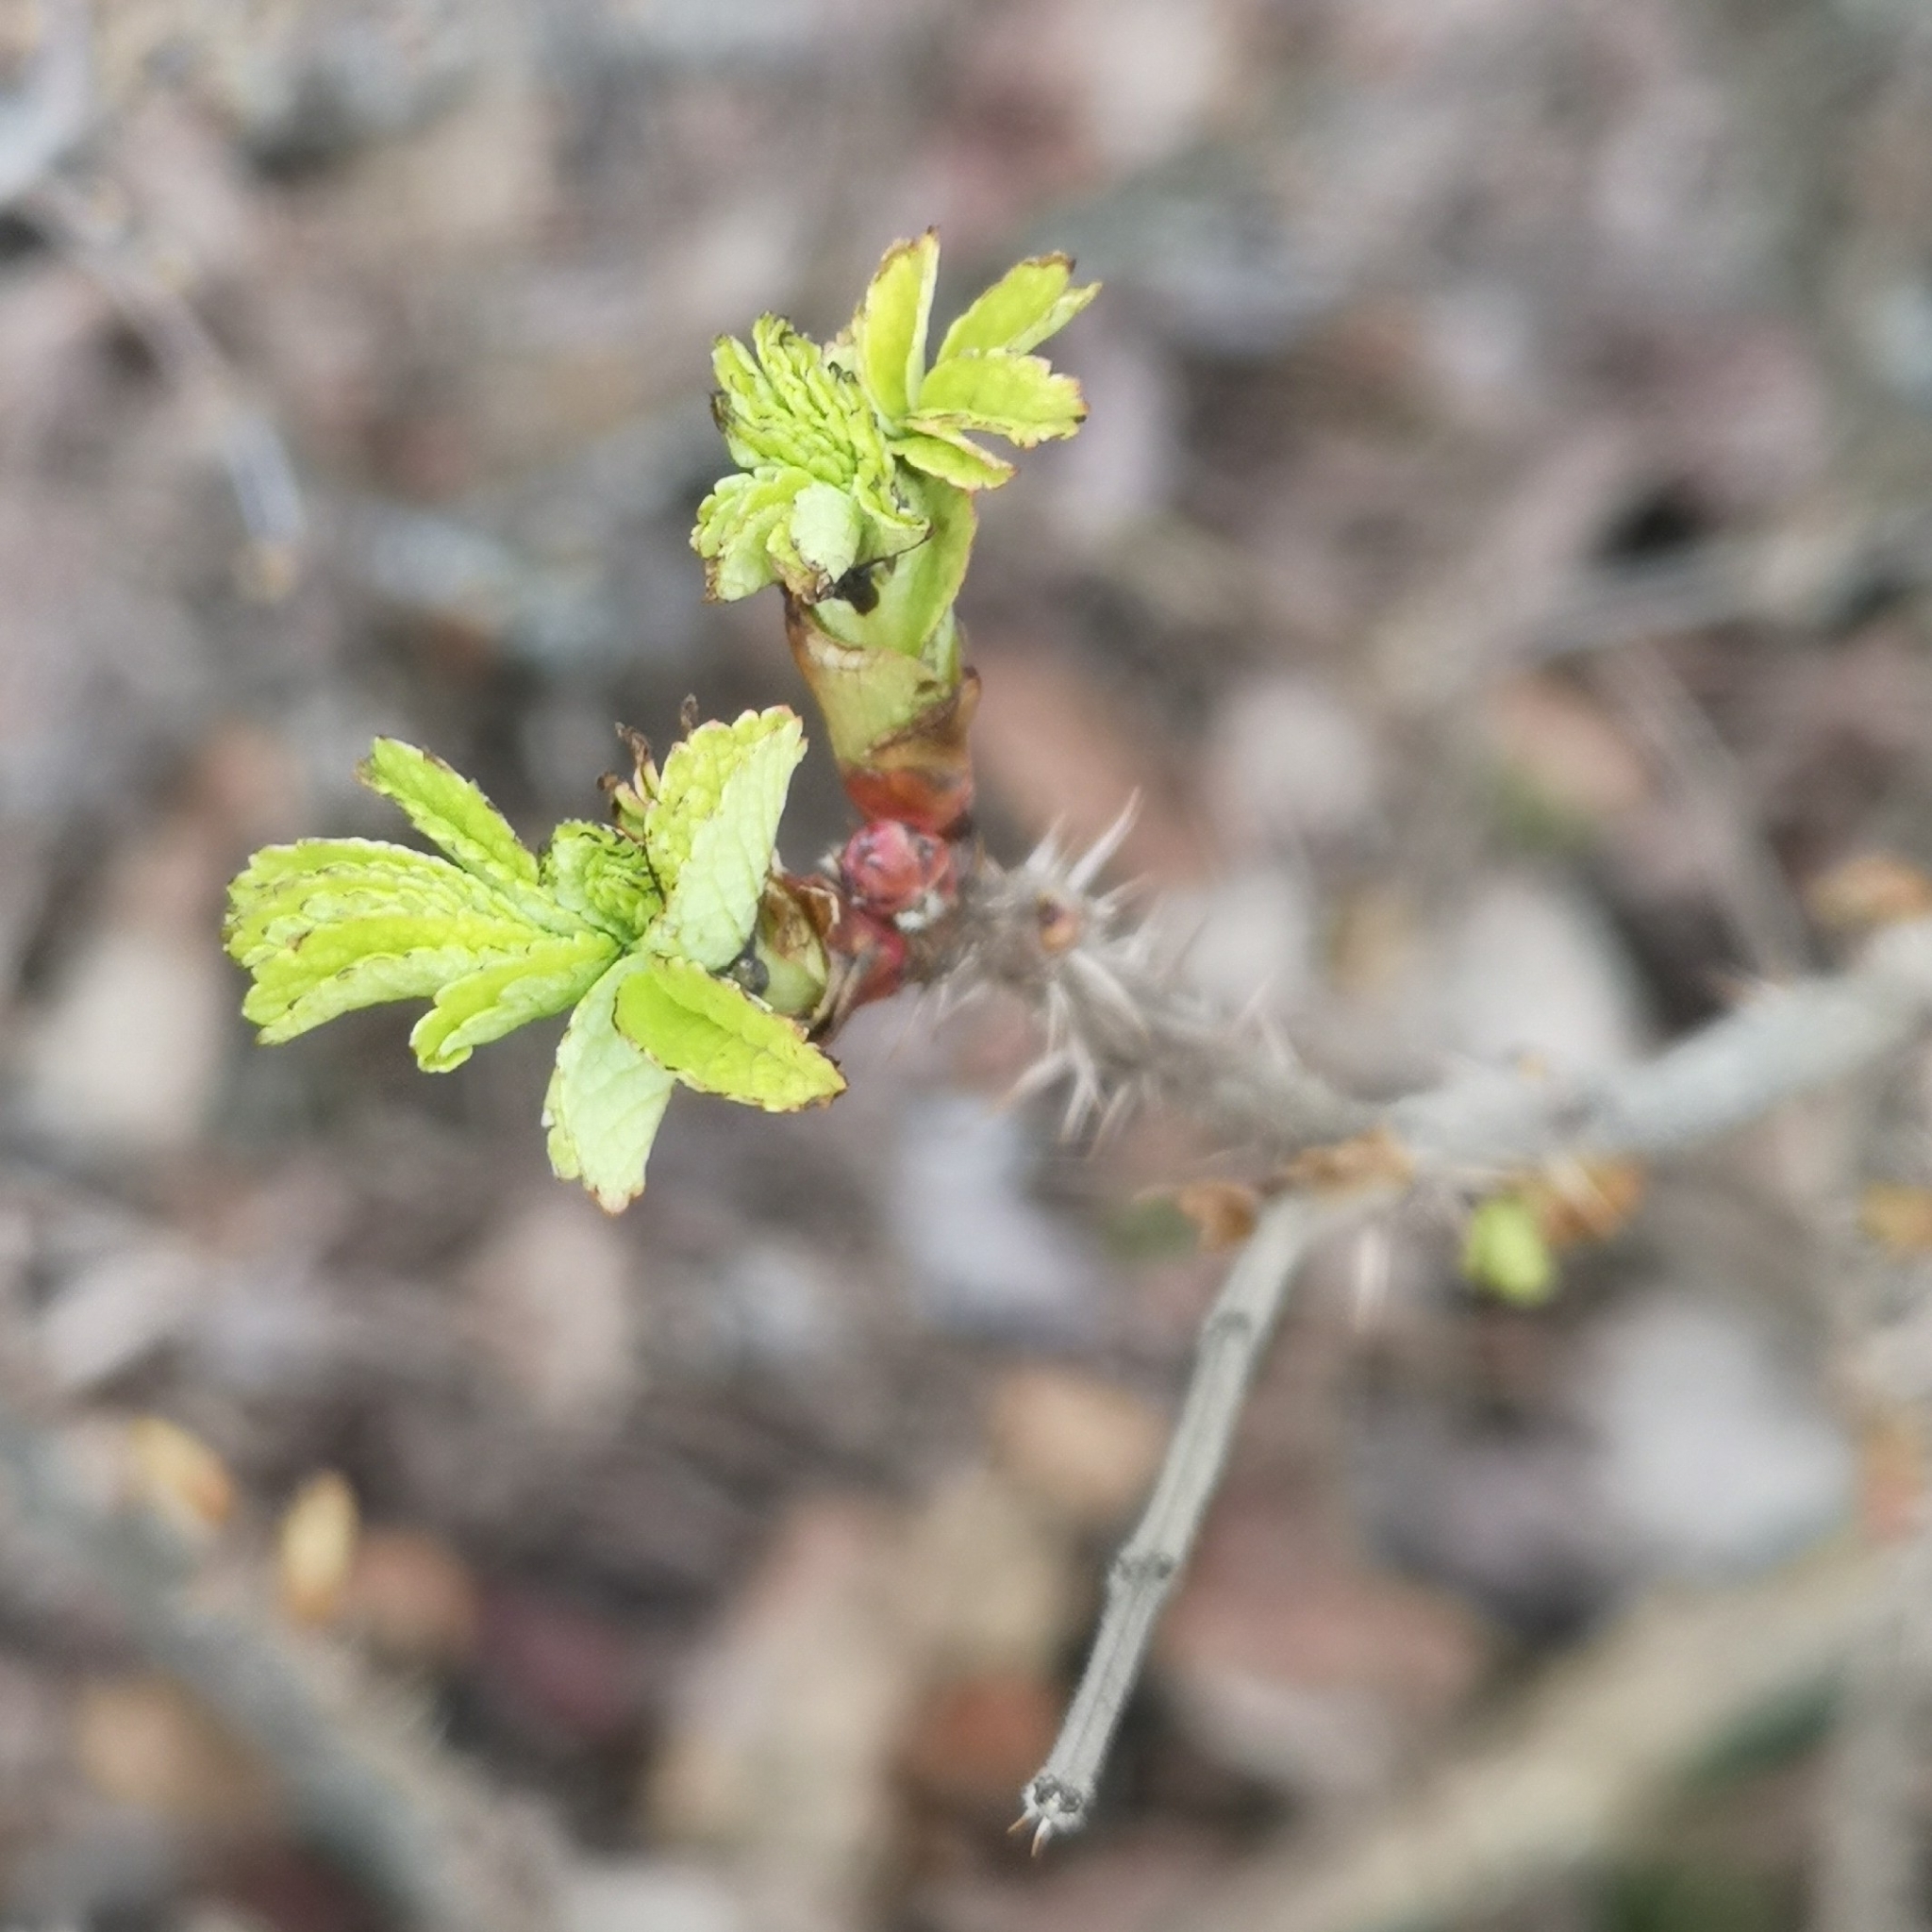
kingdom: Plantae
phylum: Tracheophyta
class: Magnoliopsida
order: Rosales
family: Rosaceae
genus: Rosa
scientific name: Rosa rugosa
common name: Japanese rose
